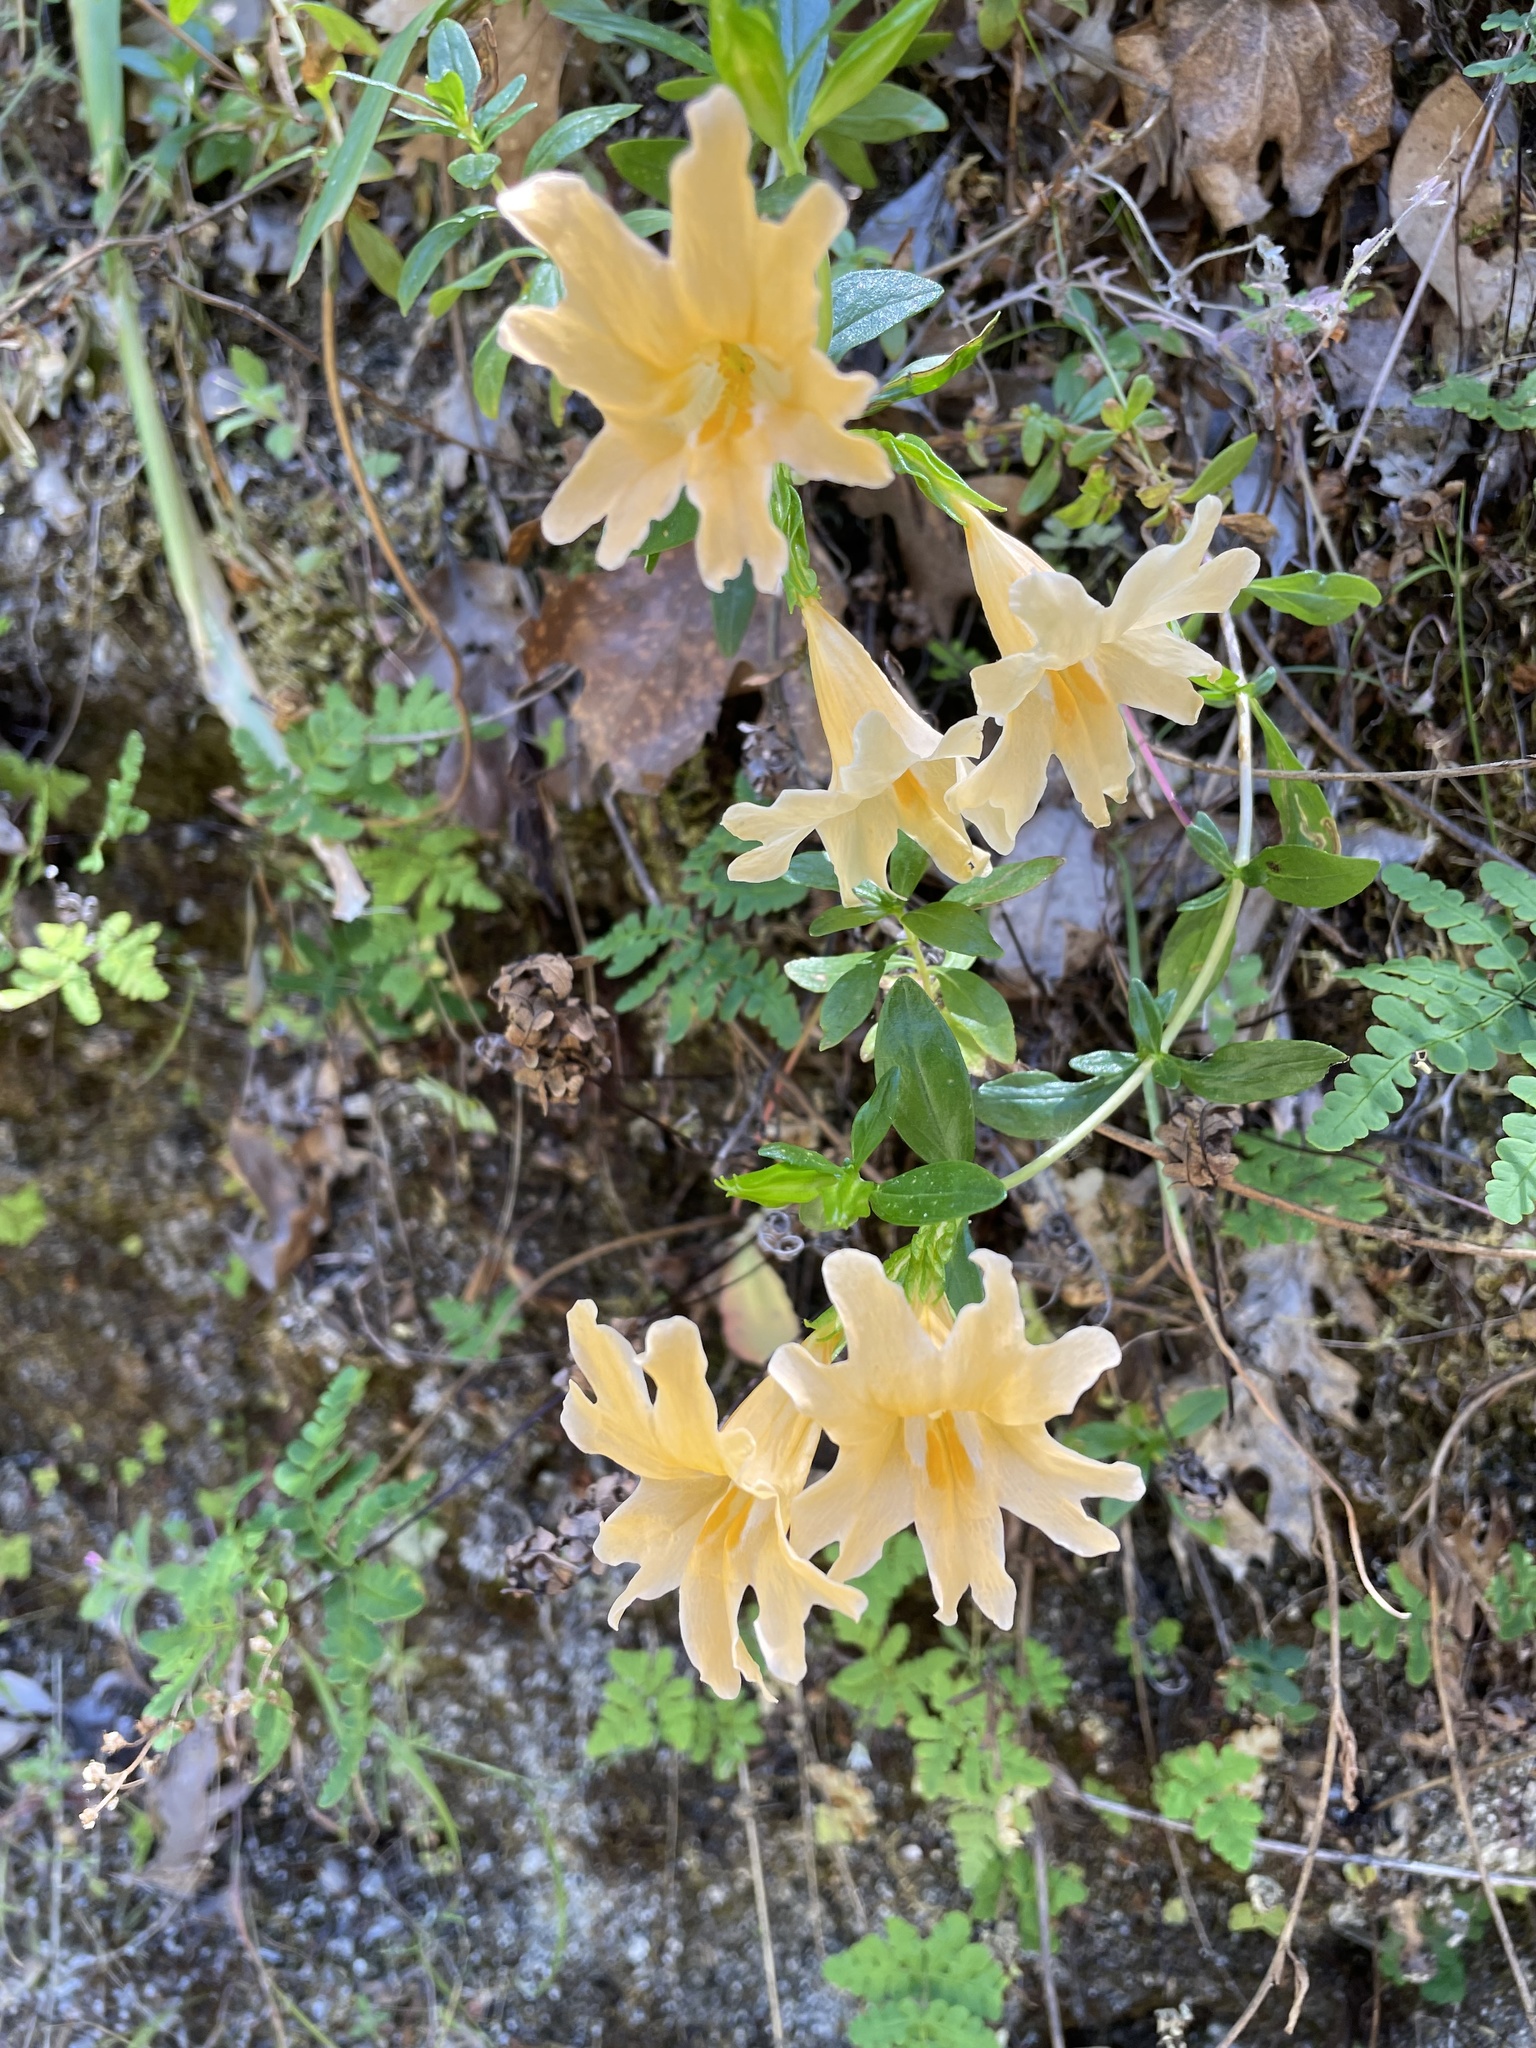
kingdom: Plantae
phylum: Tracheophyta
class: Magnoliopsida
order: Lamiales
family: Phrymaceae
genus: Diplacus
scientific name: Diplacus grandiflorus
